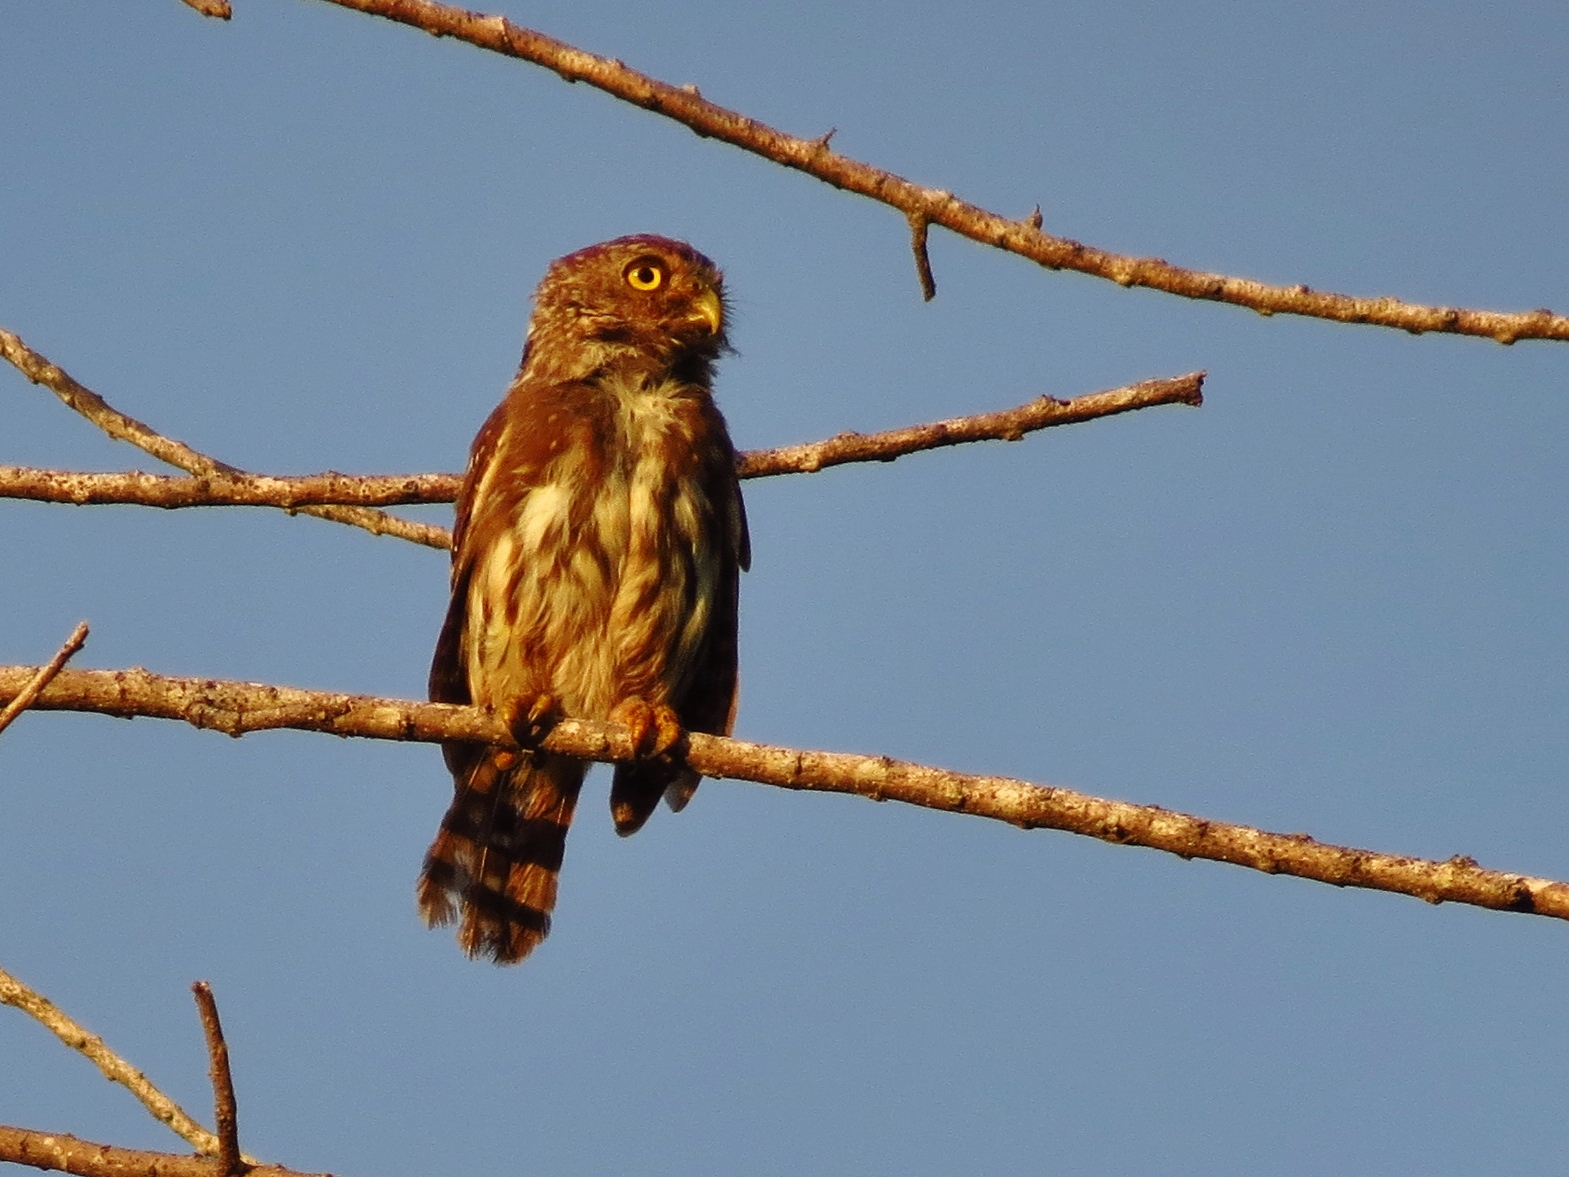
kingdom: Animalia
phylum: Chordata
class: Aves
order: Strigiformes
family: Strigidae
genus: Glaucidium
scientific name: Glaucidium brasilianum
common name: Ferruginous pygmy-owl
